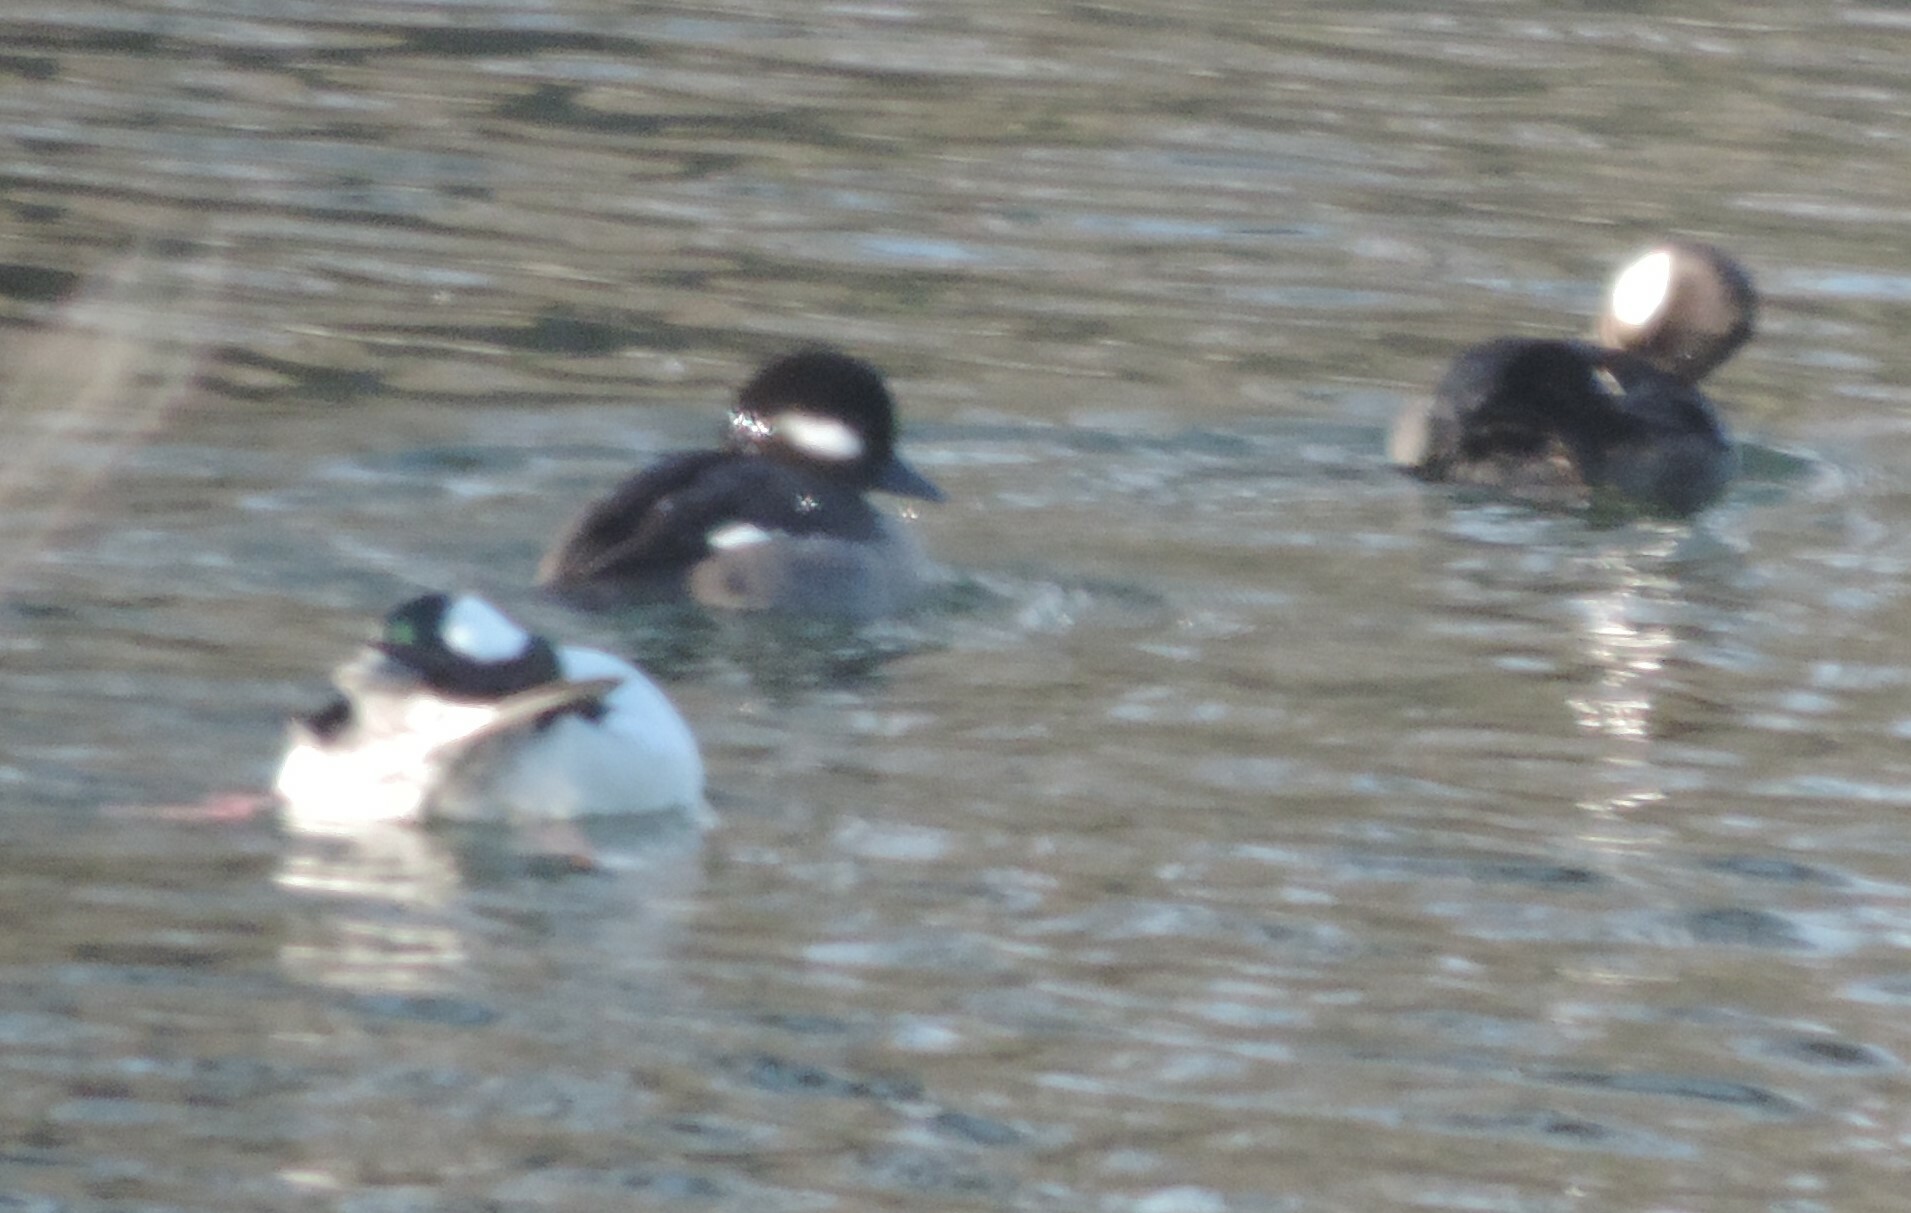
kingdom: Animalia
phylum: Chordata
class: Aves
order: Anseriformes
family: Anatidae
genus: Bucephala
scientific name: Bucephala albeola
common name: Bufflehead
